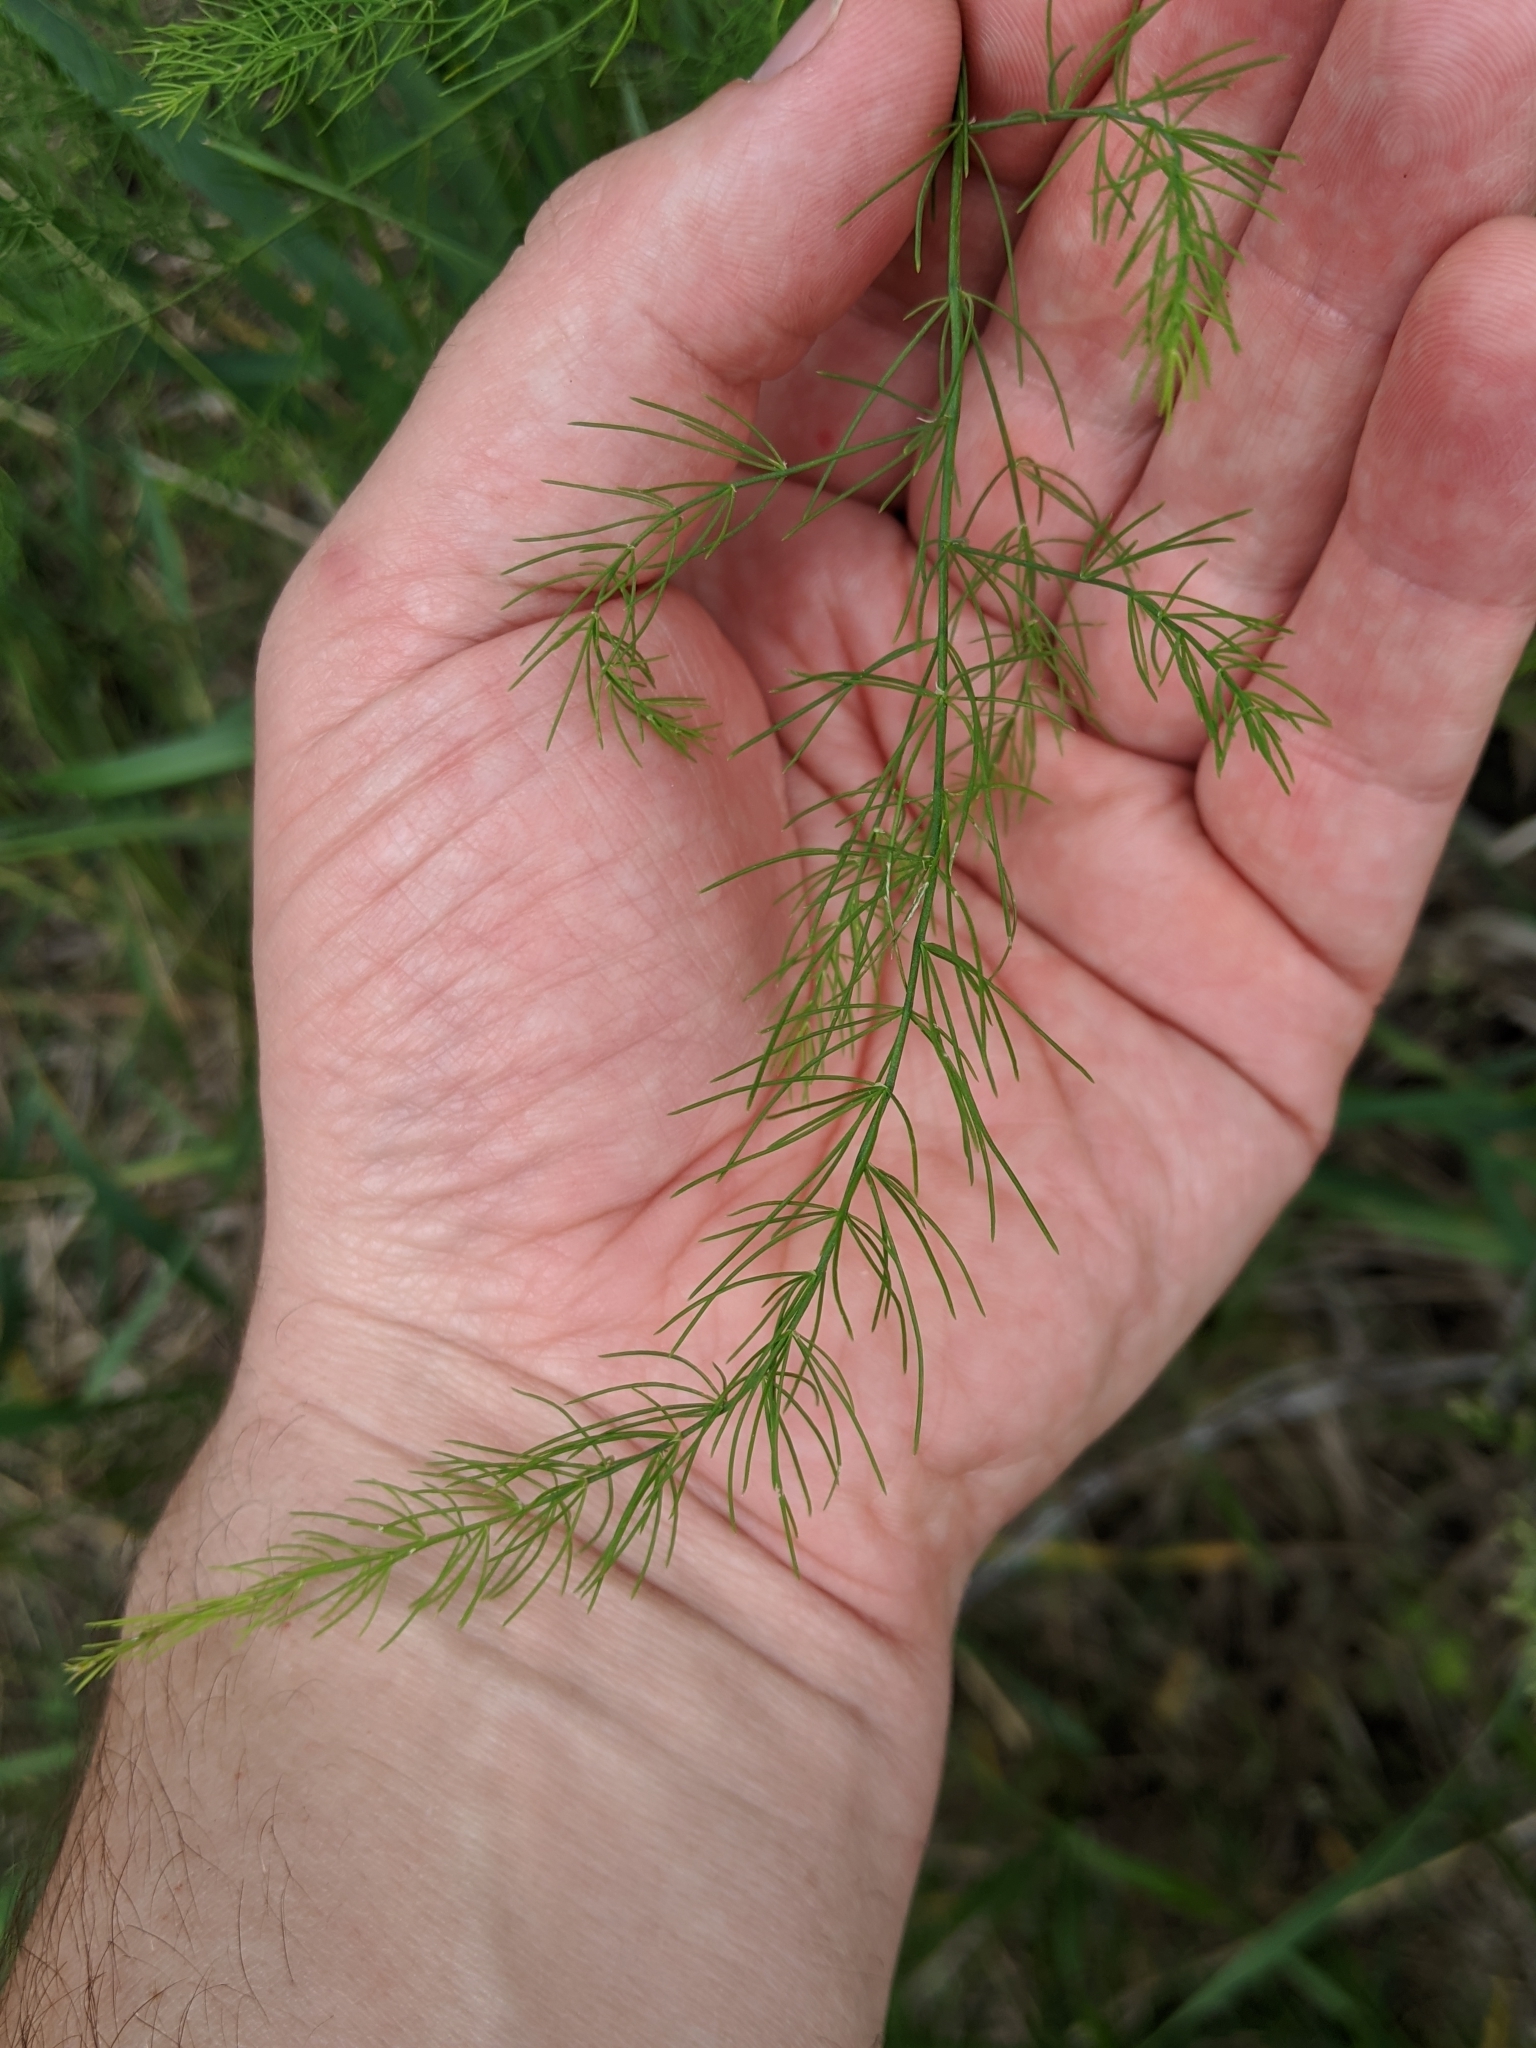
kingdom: Plantae
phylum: Tracheophyta
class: Liliopsida
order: Asparagales
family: Asparagaceae
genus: Asparagus
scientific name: Asparagus officinalis
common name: Garden asparagus
